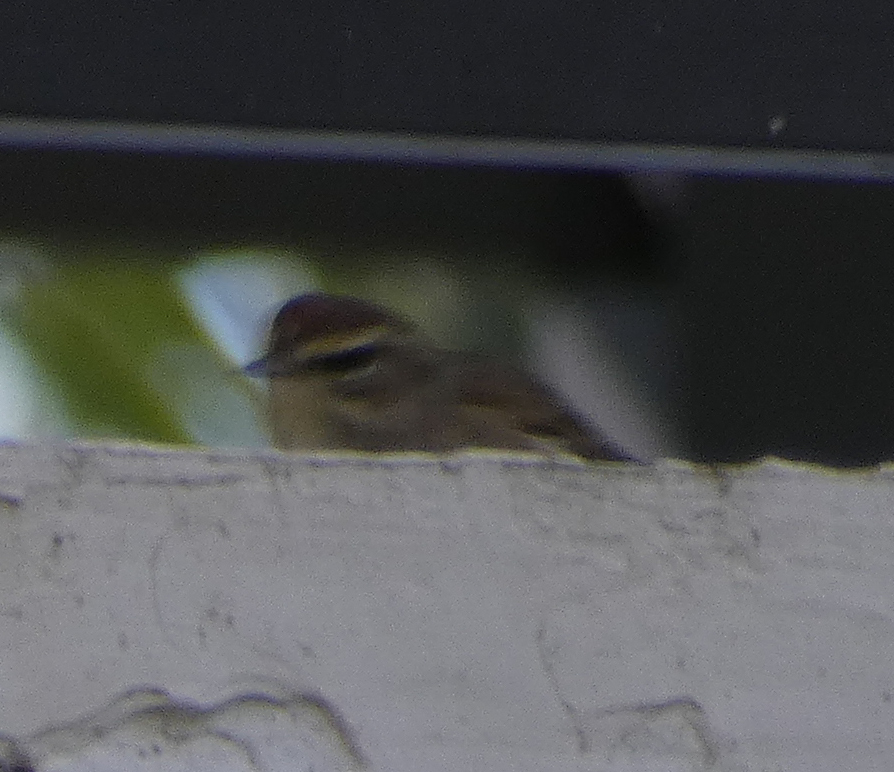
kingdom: Animalia
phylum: Chordata
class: Aves
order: Passeriformes
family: Parulidae
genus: Setophaga
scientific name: Setophaga palmarum
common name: Palm warbler
